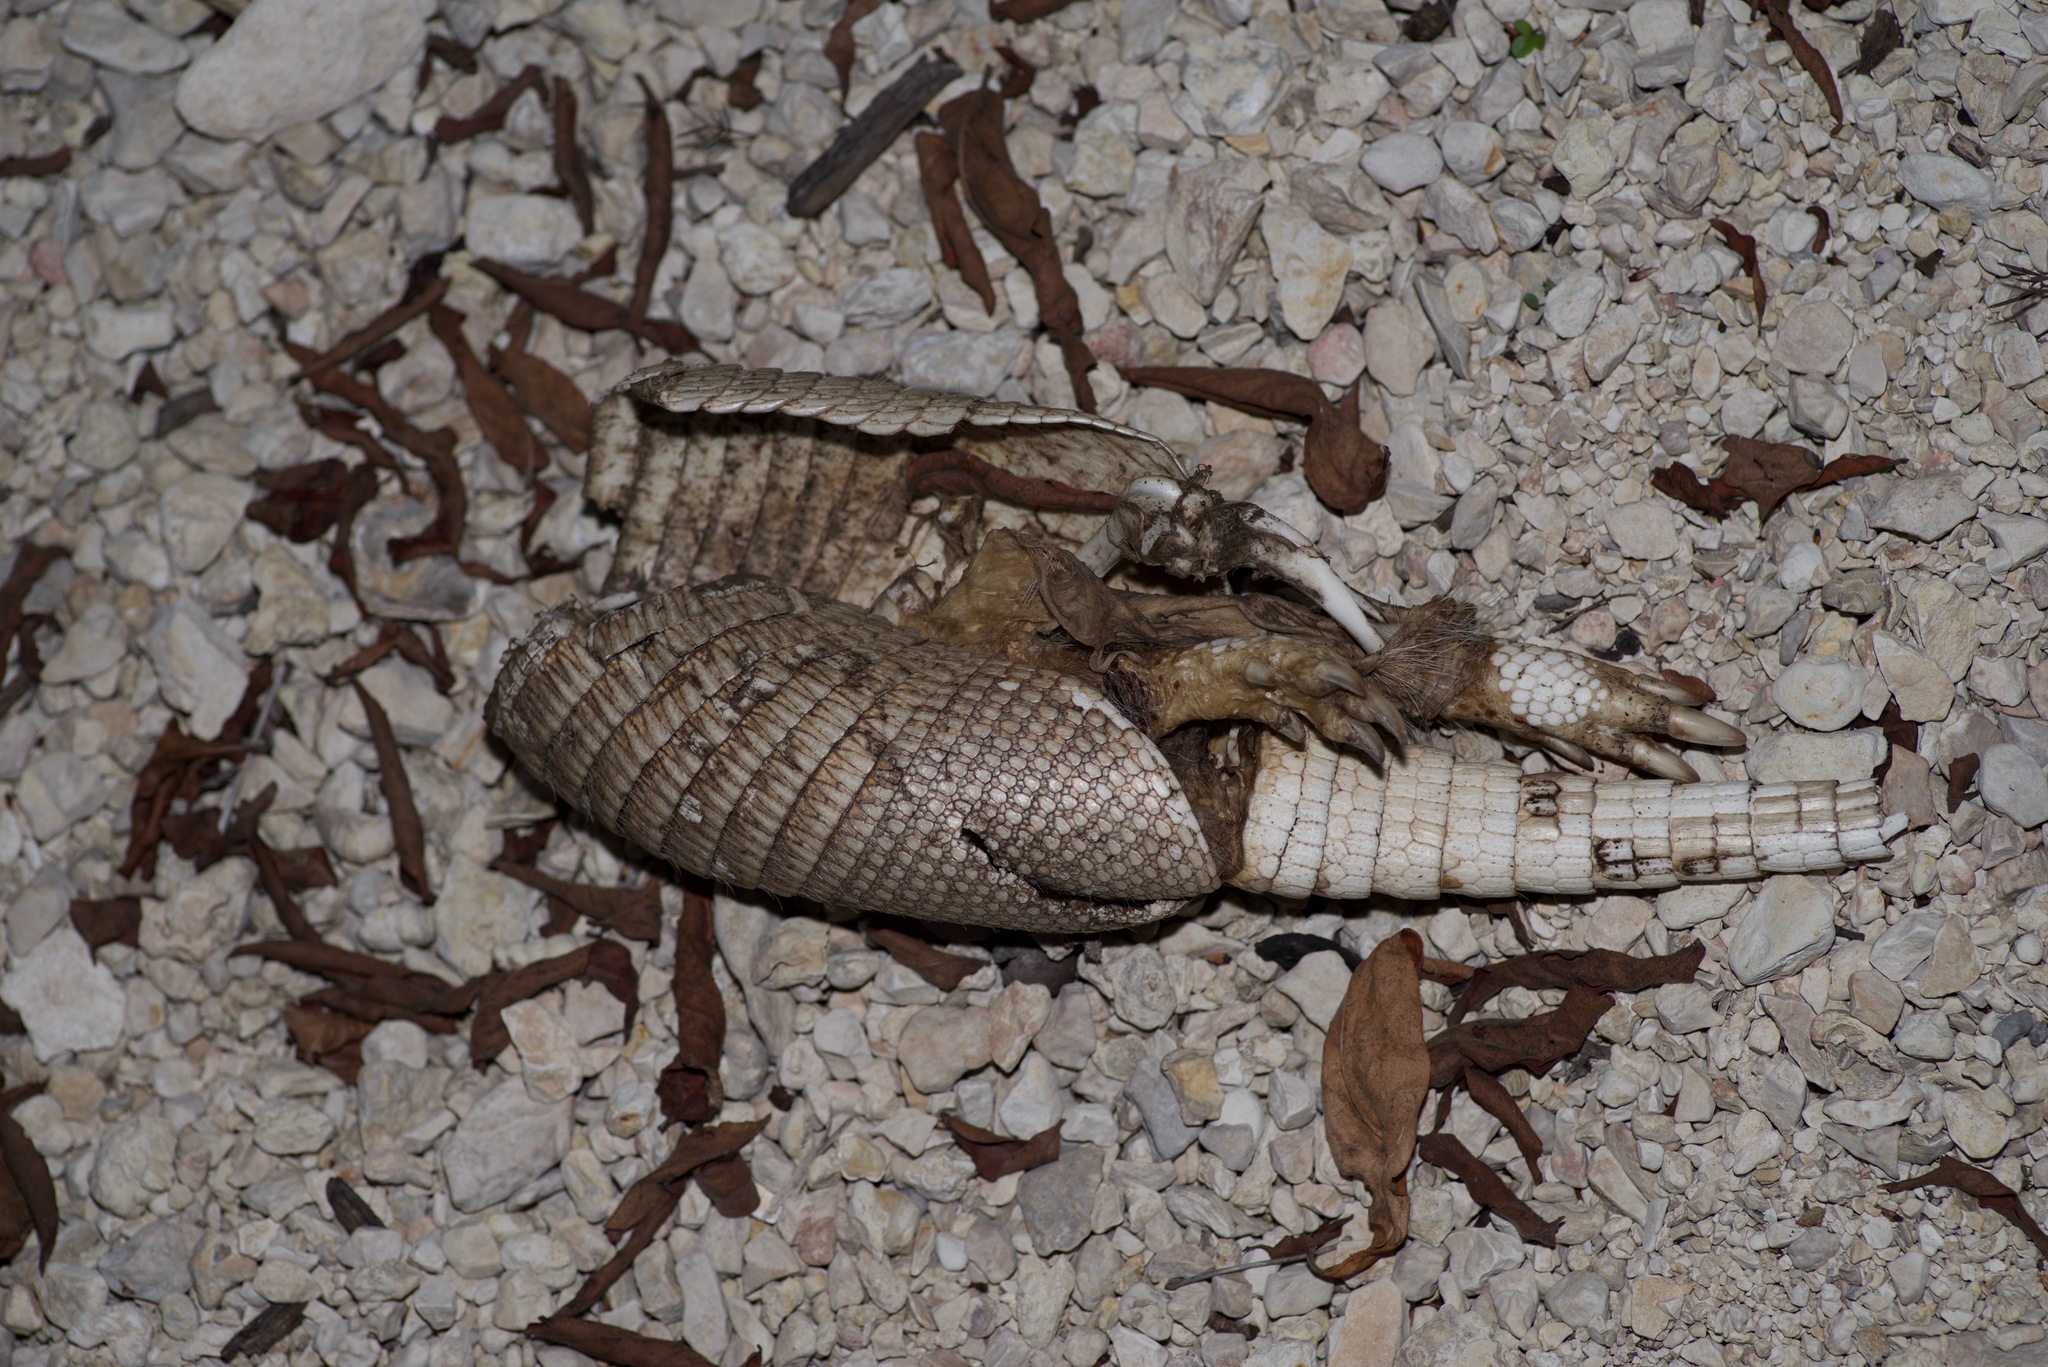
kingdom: Animalia
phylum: Chordata
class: Mammalia
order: Cingulata
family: Dasypodidae
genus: Dasypus
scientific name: Dasypus novemcinctus
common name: Nine-banded armadillo
